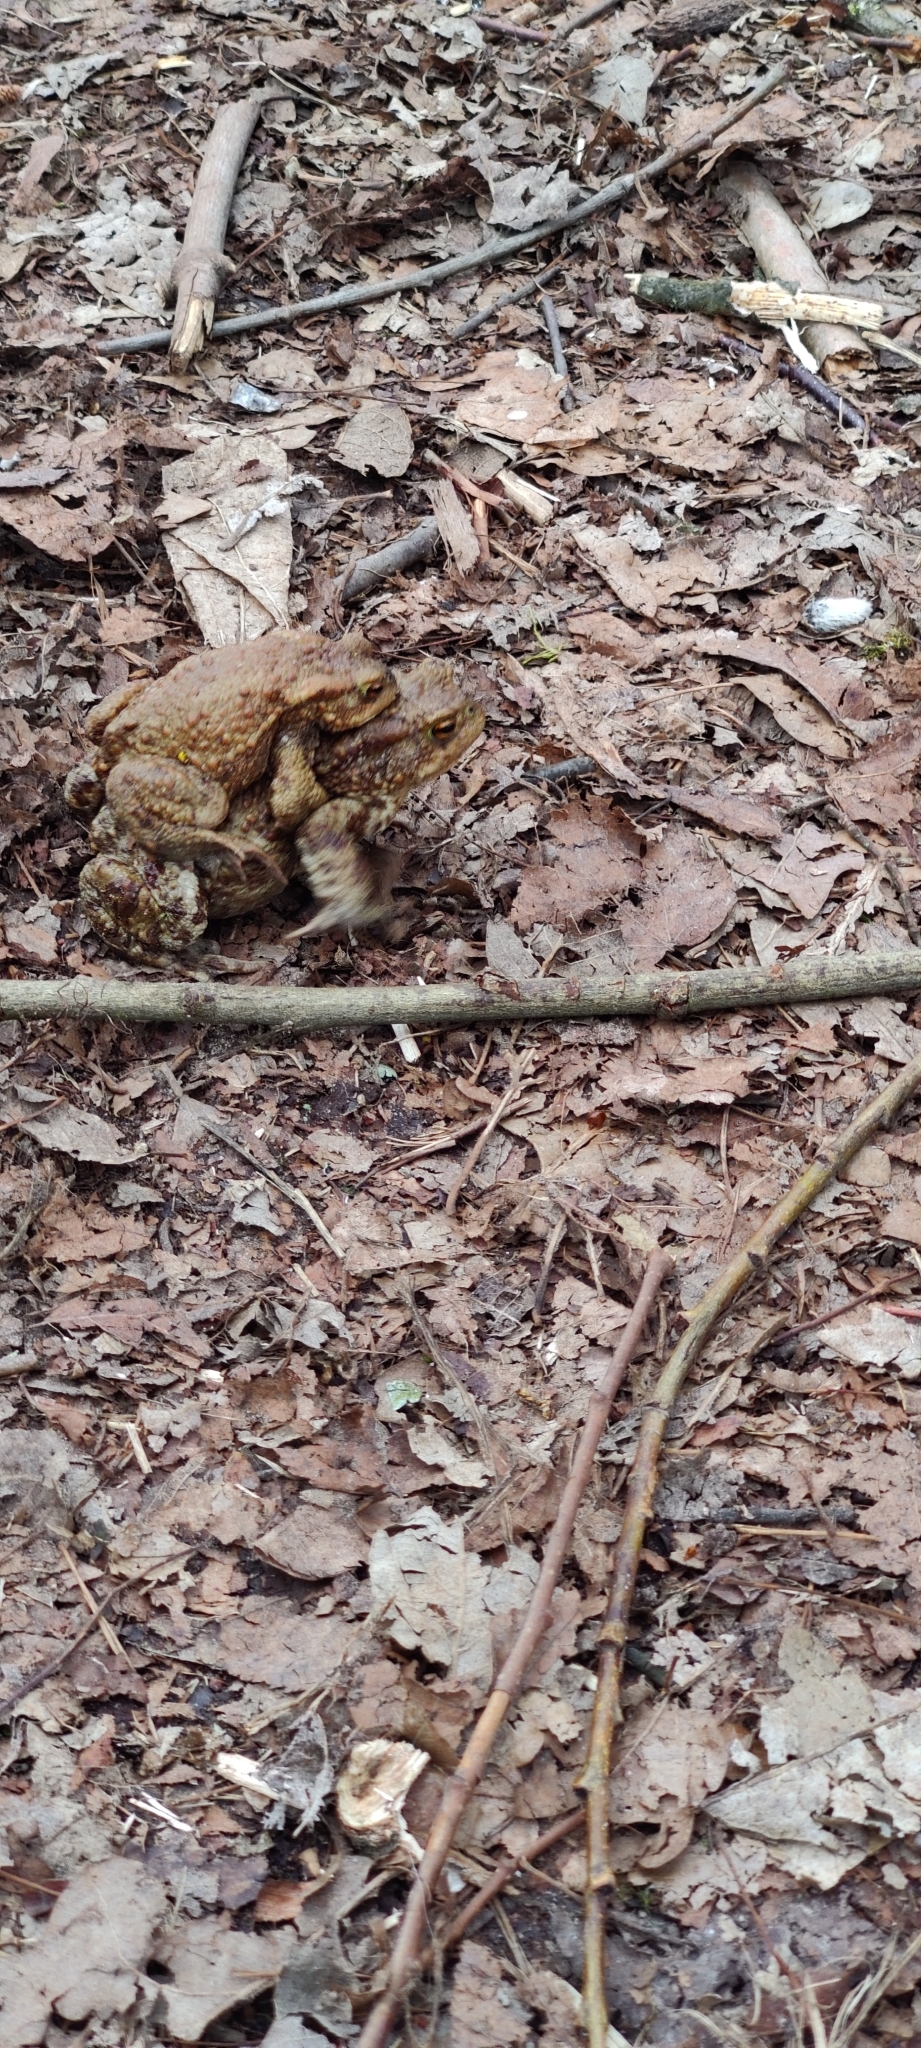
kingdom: Animalia
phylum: Chordata
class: Amphibia
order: Anura
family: Bufonidae
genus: Bufo
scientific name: Bufo bufo
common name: Common toad
